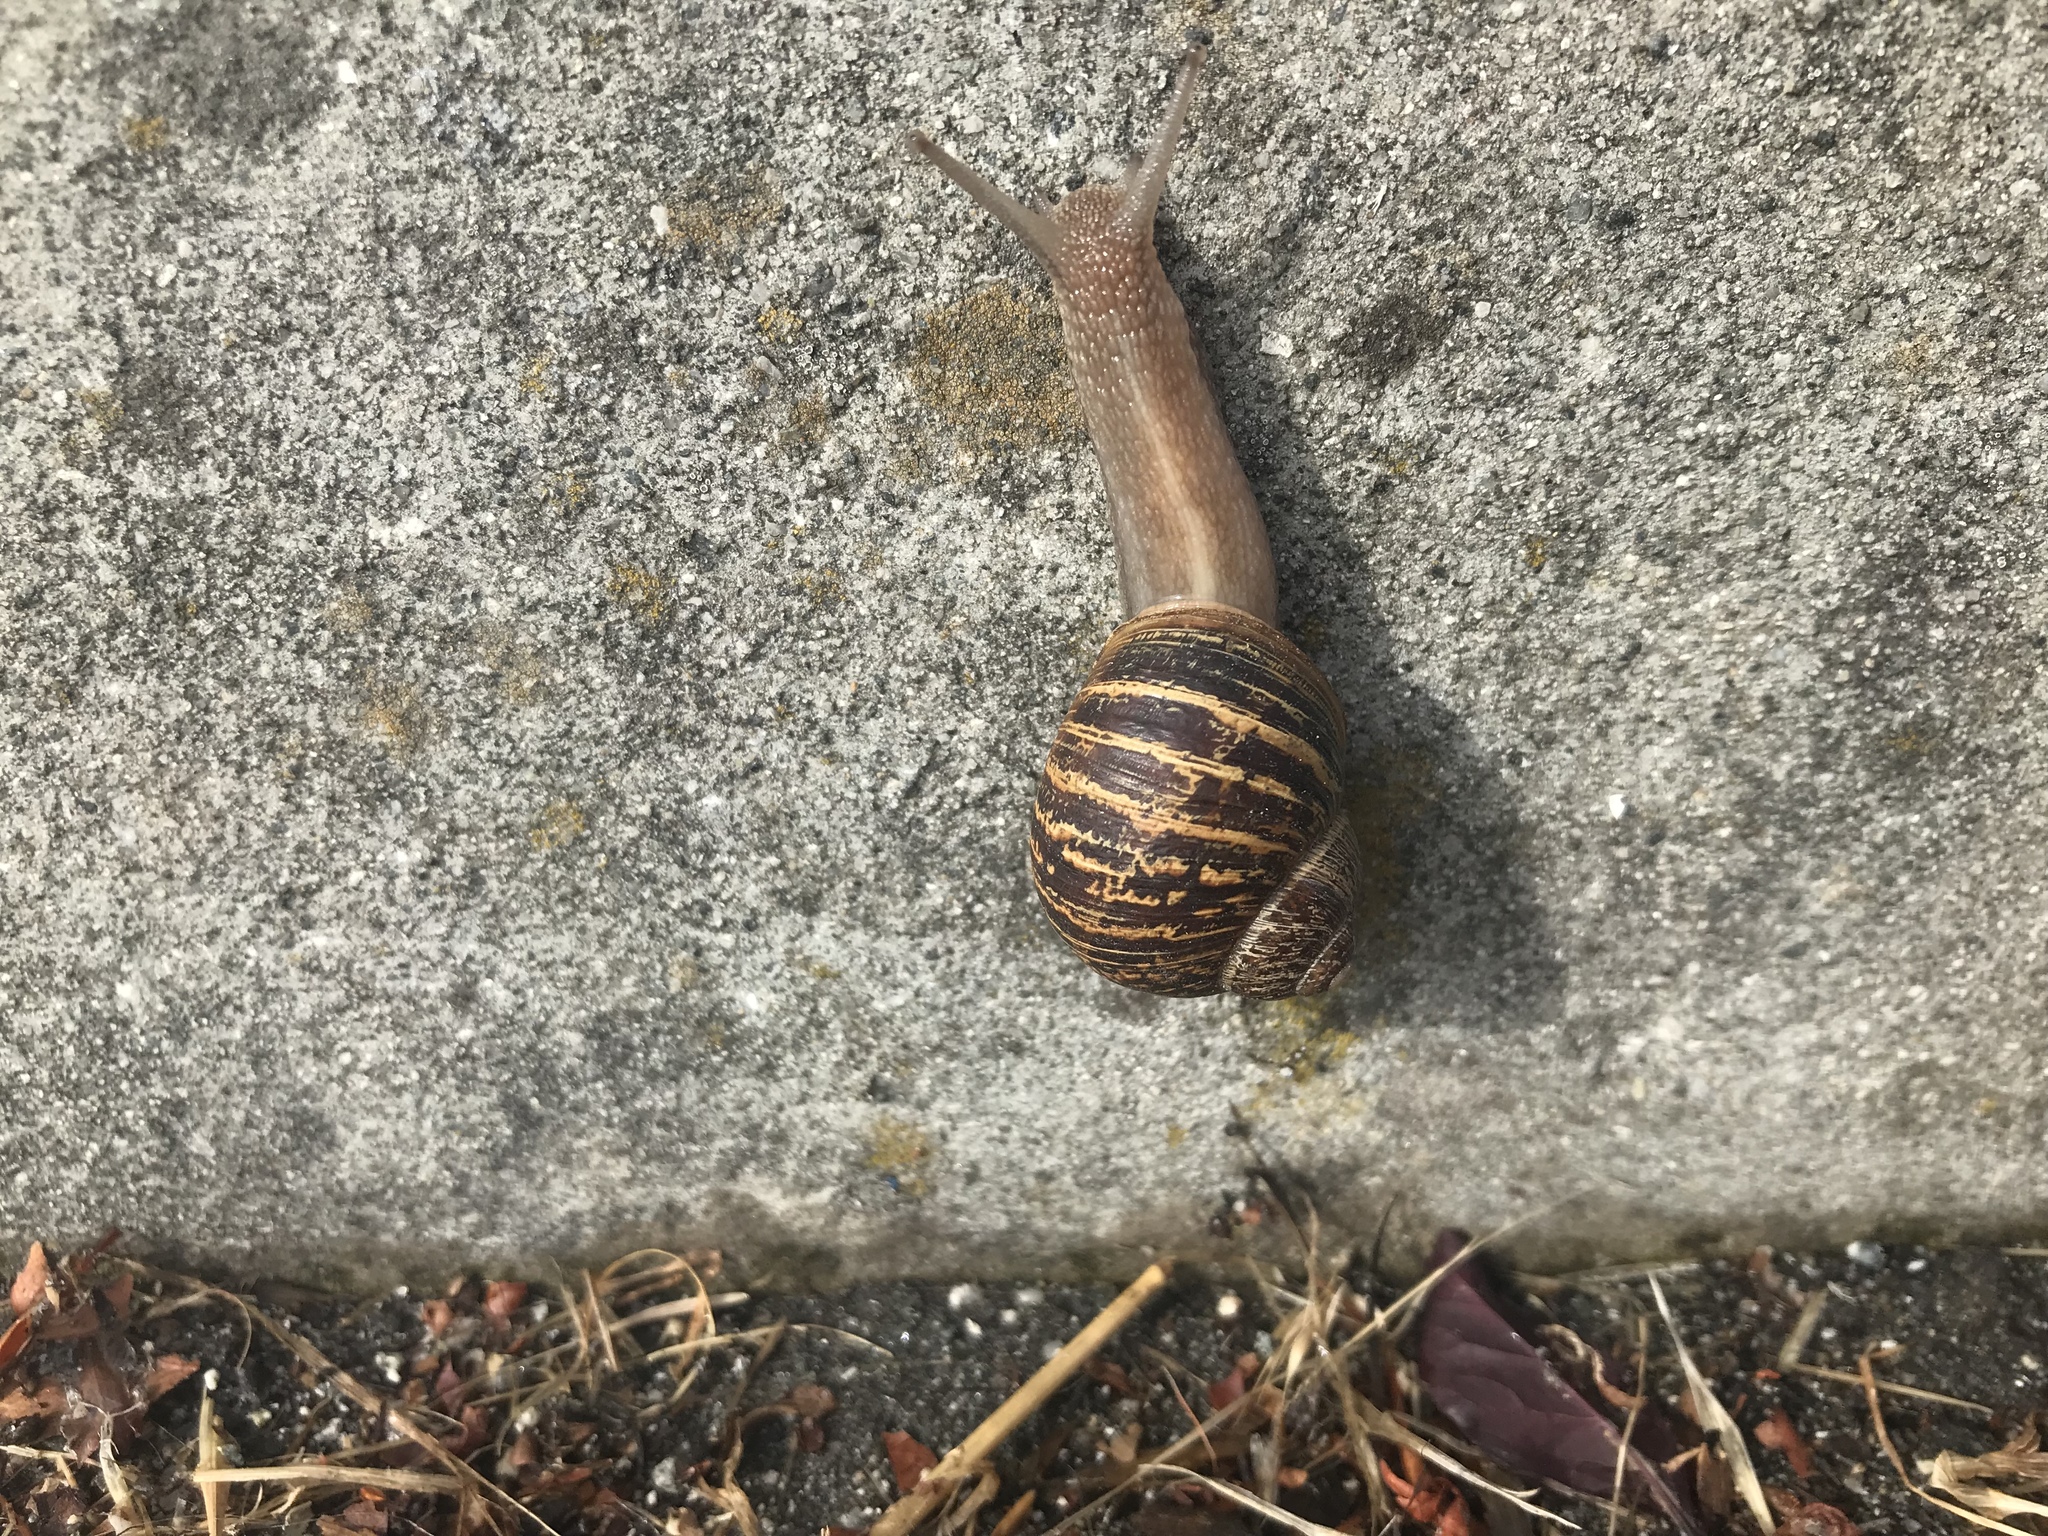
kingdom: Animalia
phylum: Mollusca
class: Gastropoda
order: Stylommatophora
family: Helicidae
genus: Cornu
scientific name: Cornu aspersum
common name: Brown garden snail
